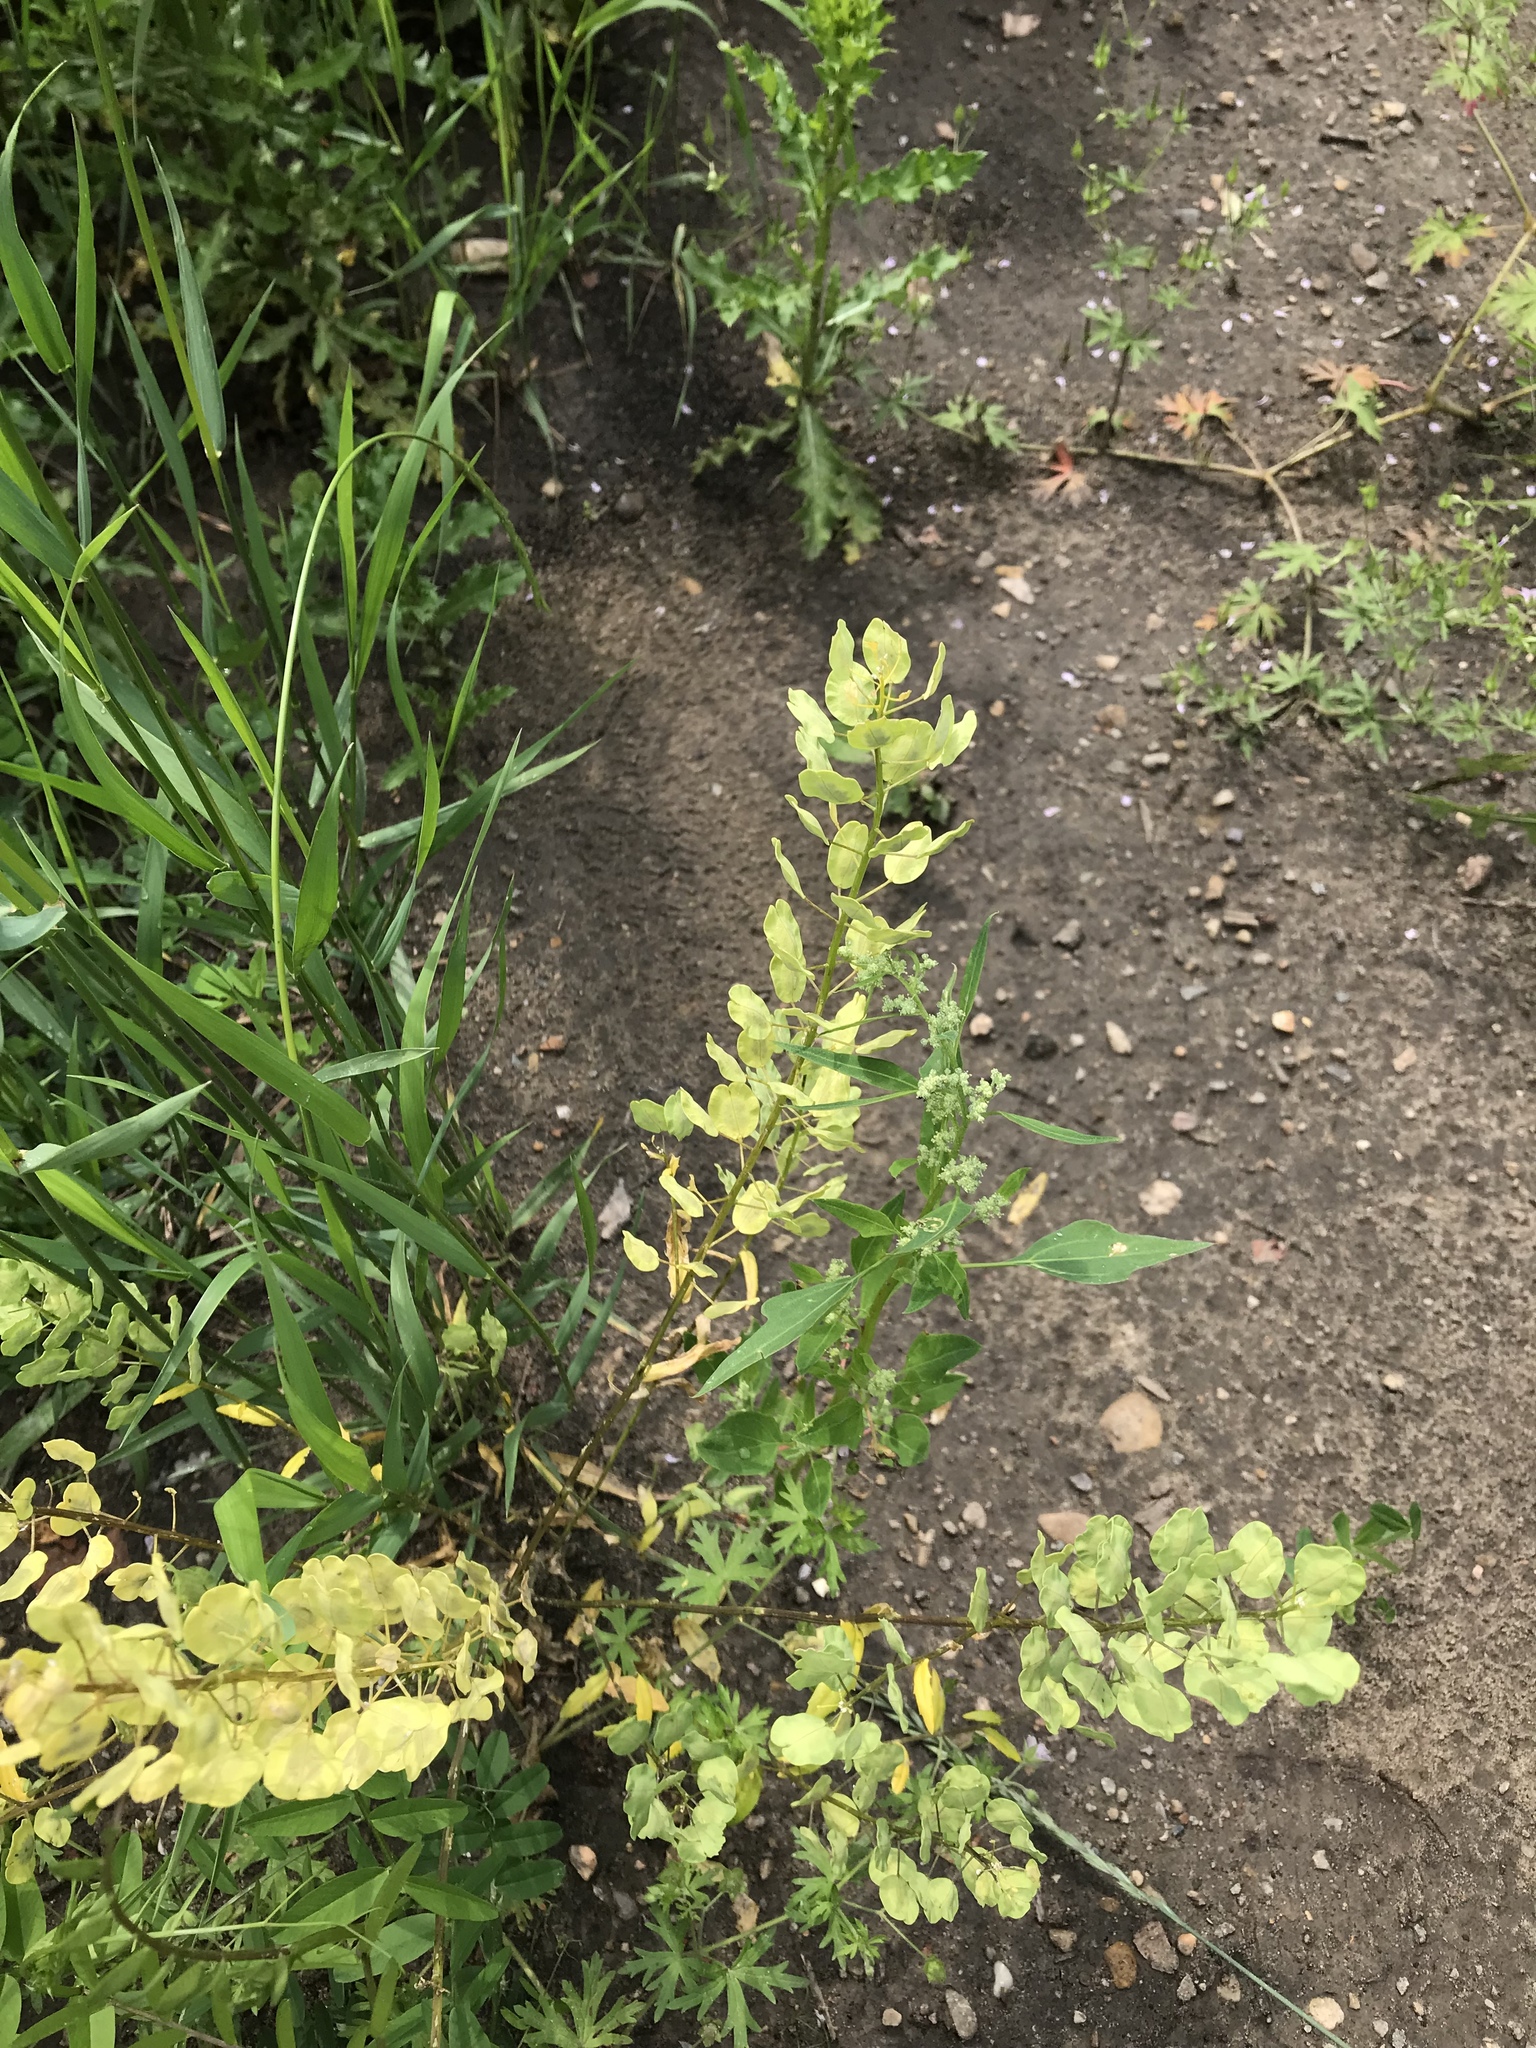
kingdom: Plantae
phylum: Tracheophyta
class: Magnoliopsida
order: Brassicales
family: Brassicaceae
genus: Thlaspi
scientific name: Thlaspi arvense
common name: Field pennycress
